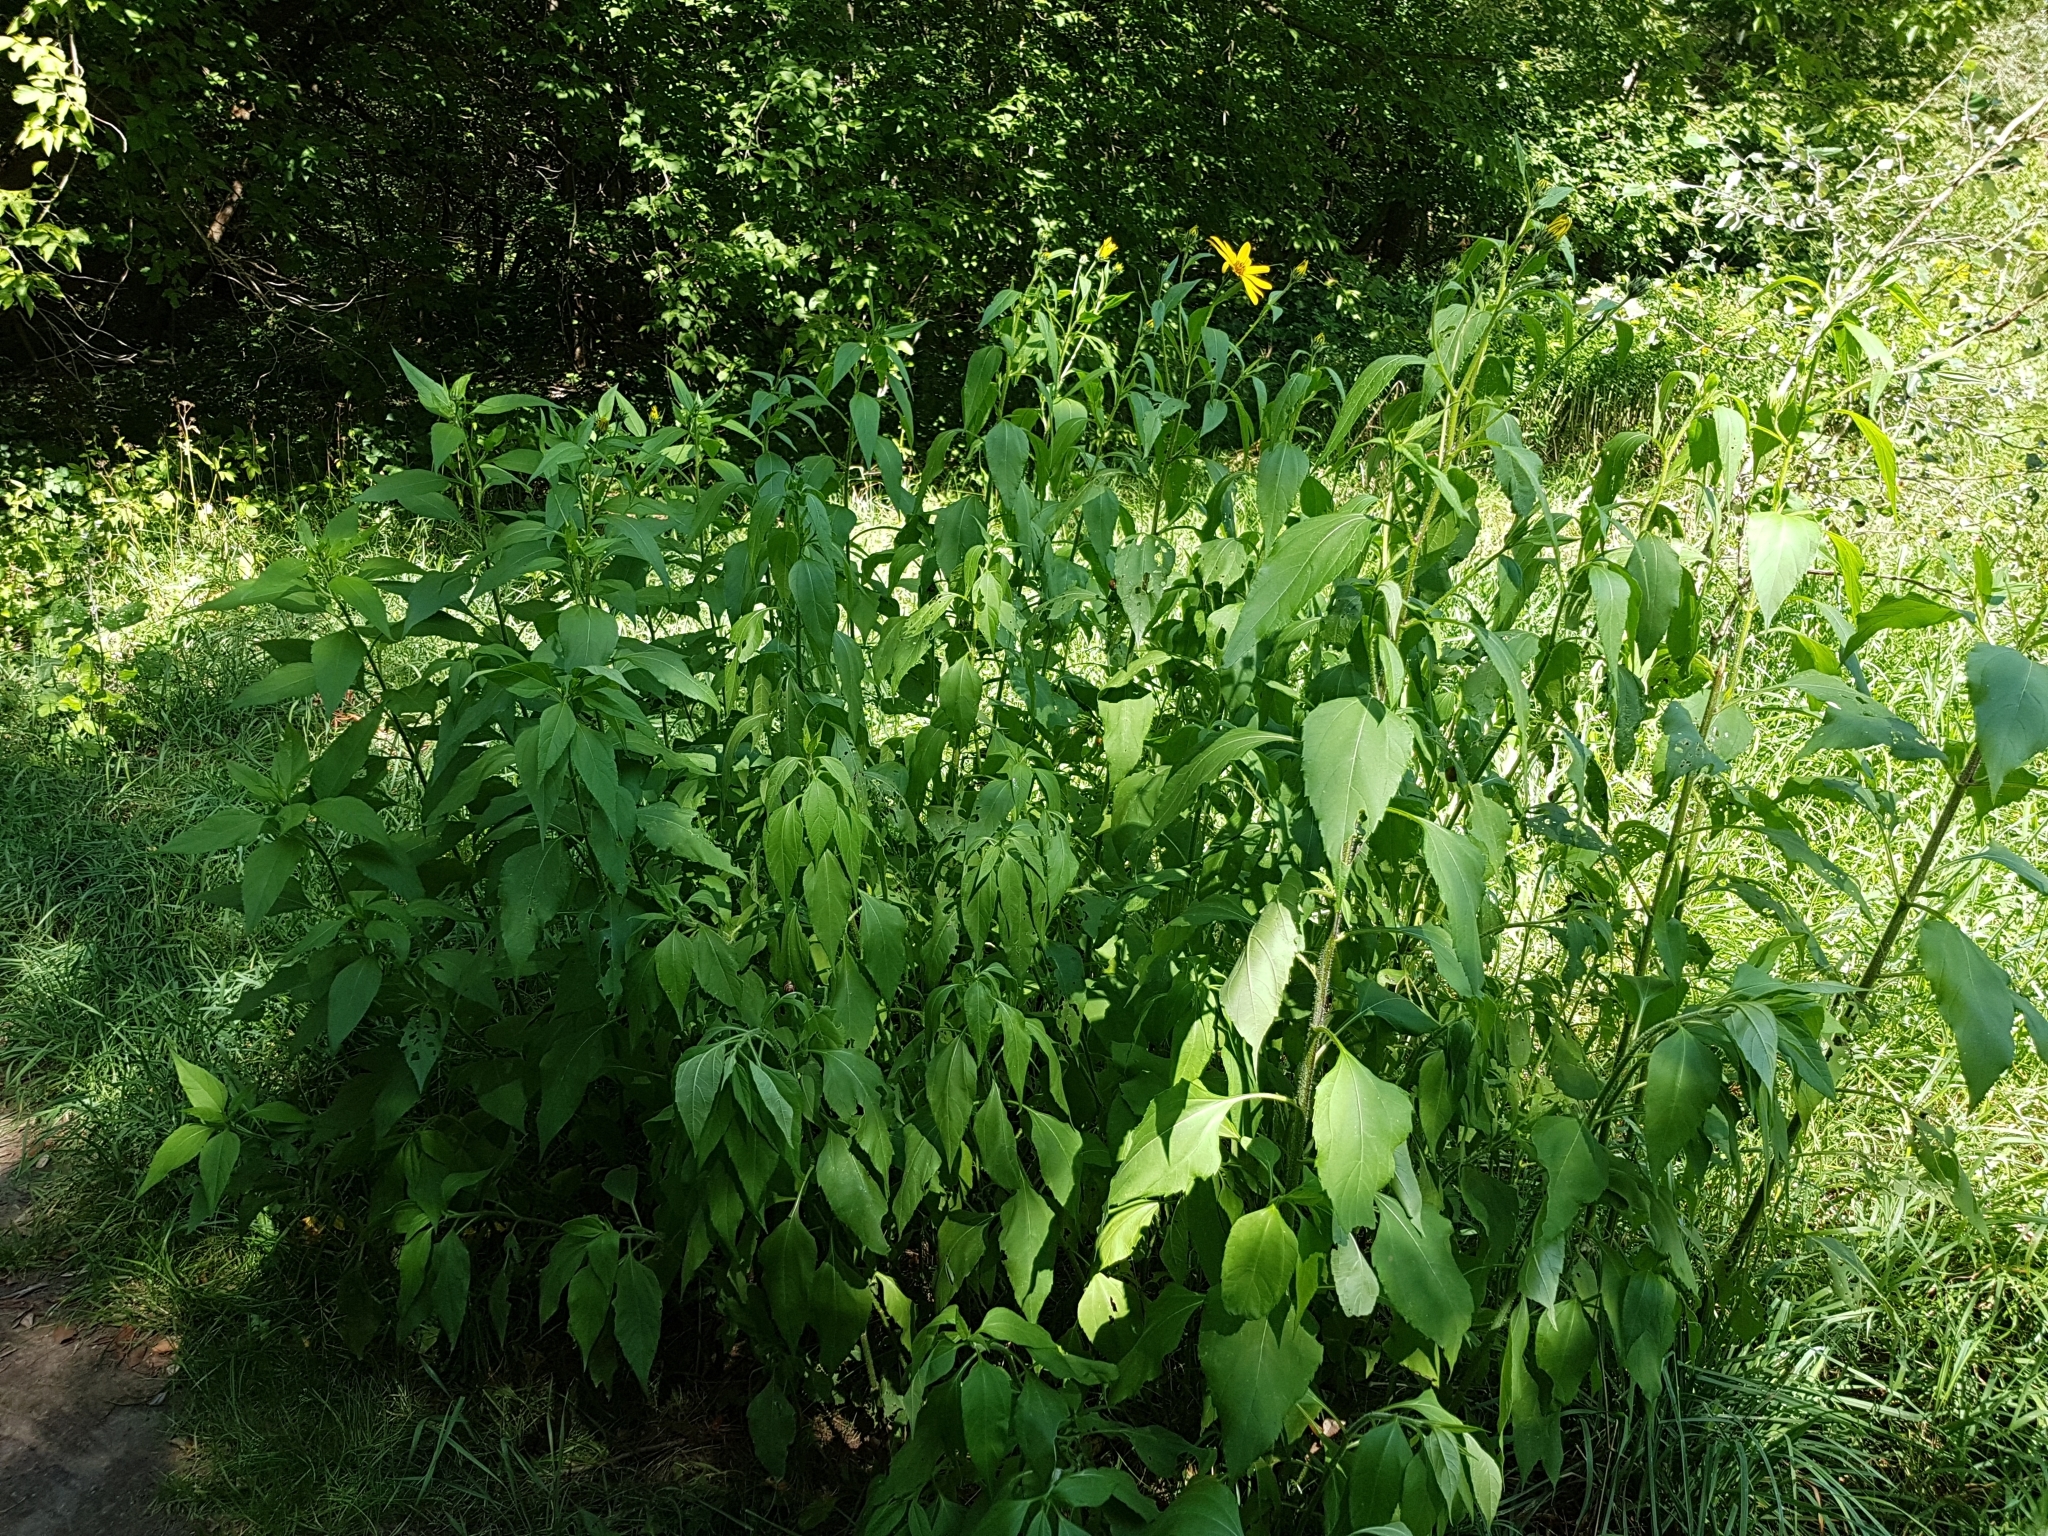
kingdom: Plantae
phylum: Tracheophyta
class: Magnoliopsida
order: Asterales
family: Asteraceae
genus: Helianthus
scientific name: Helianthus tuberosus
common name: Jerusalem artichoke
